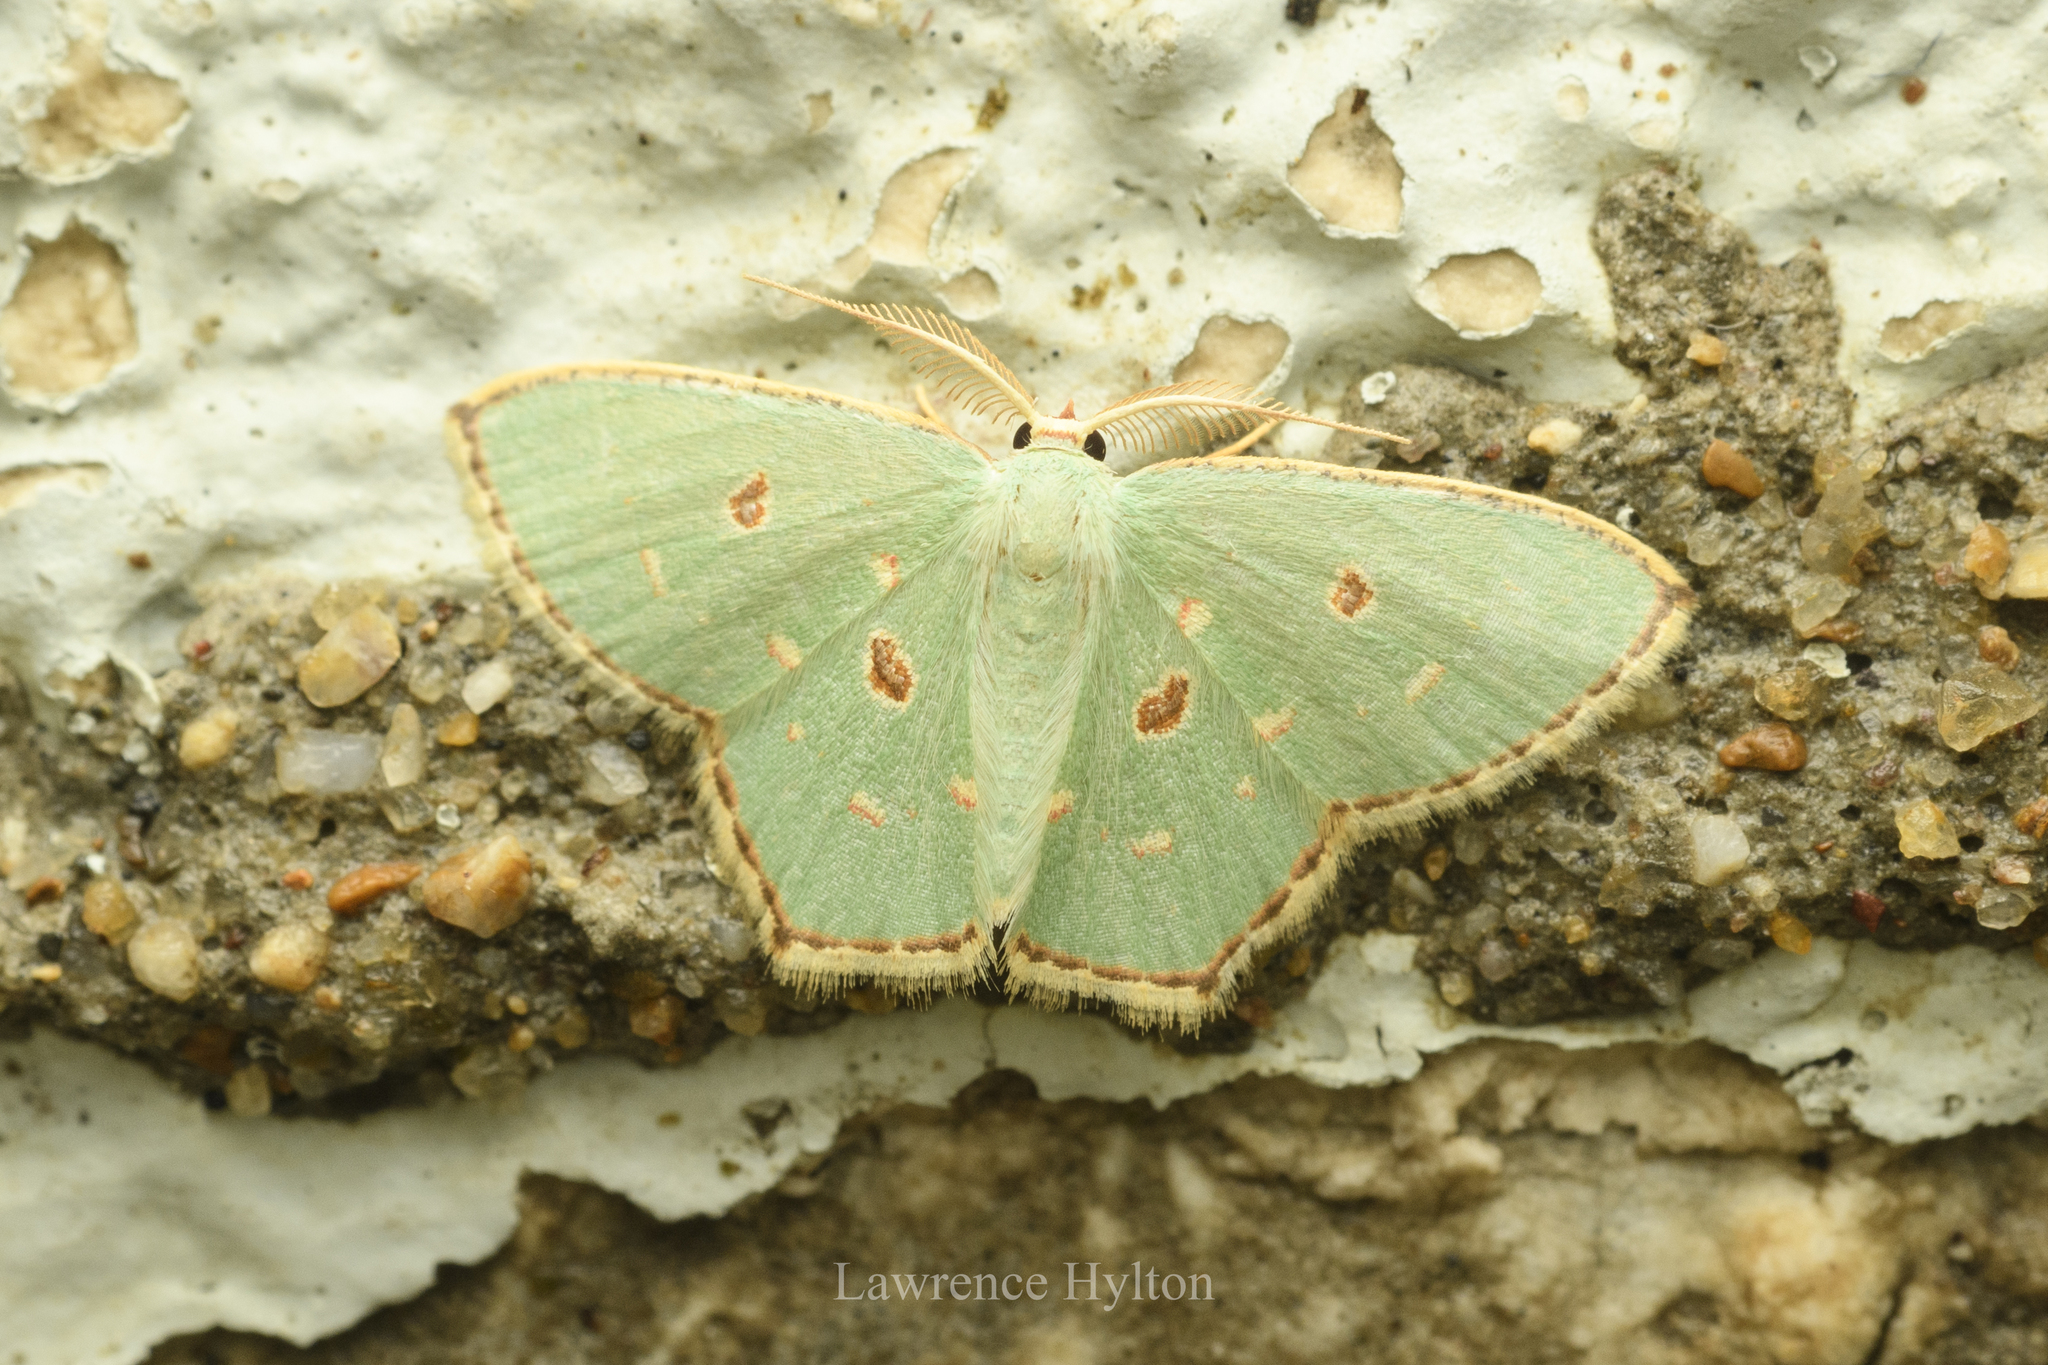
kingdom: Animalia
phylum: Arthropoda
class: Insecta
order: Lepidoptera
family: Geometridae
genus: Comostola
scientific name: Comostola meritaria
